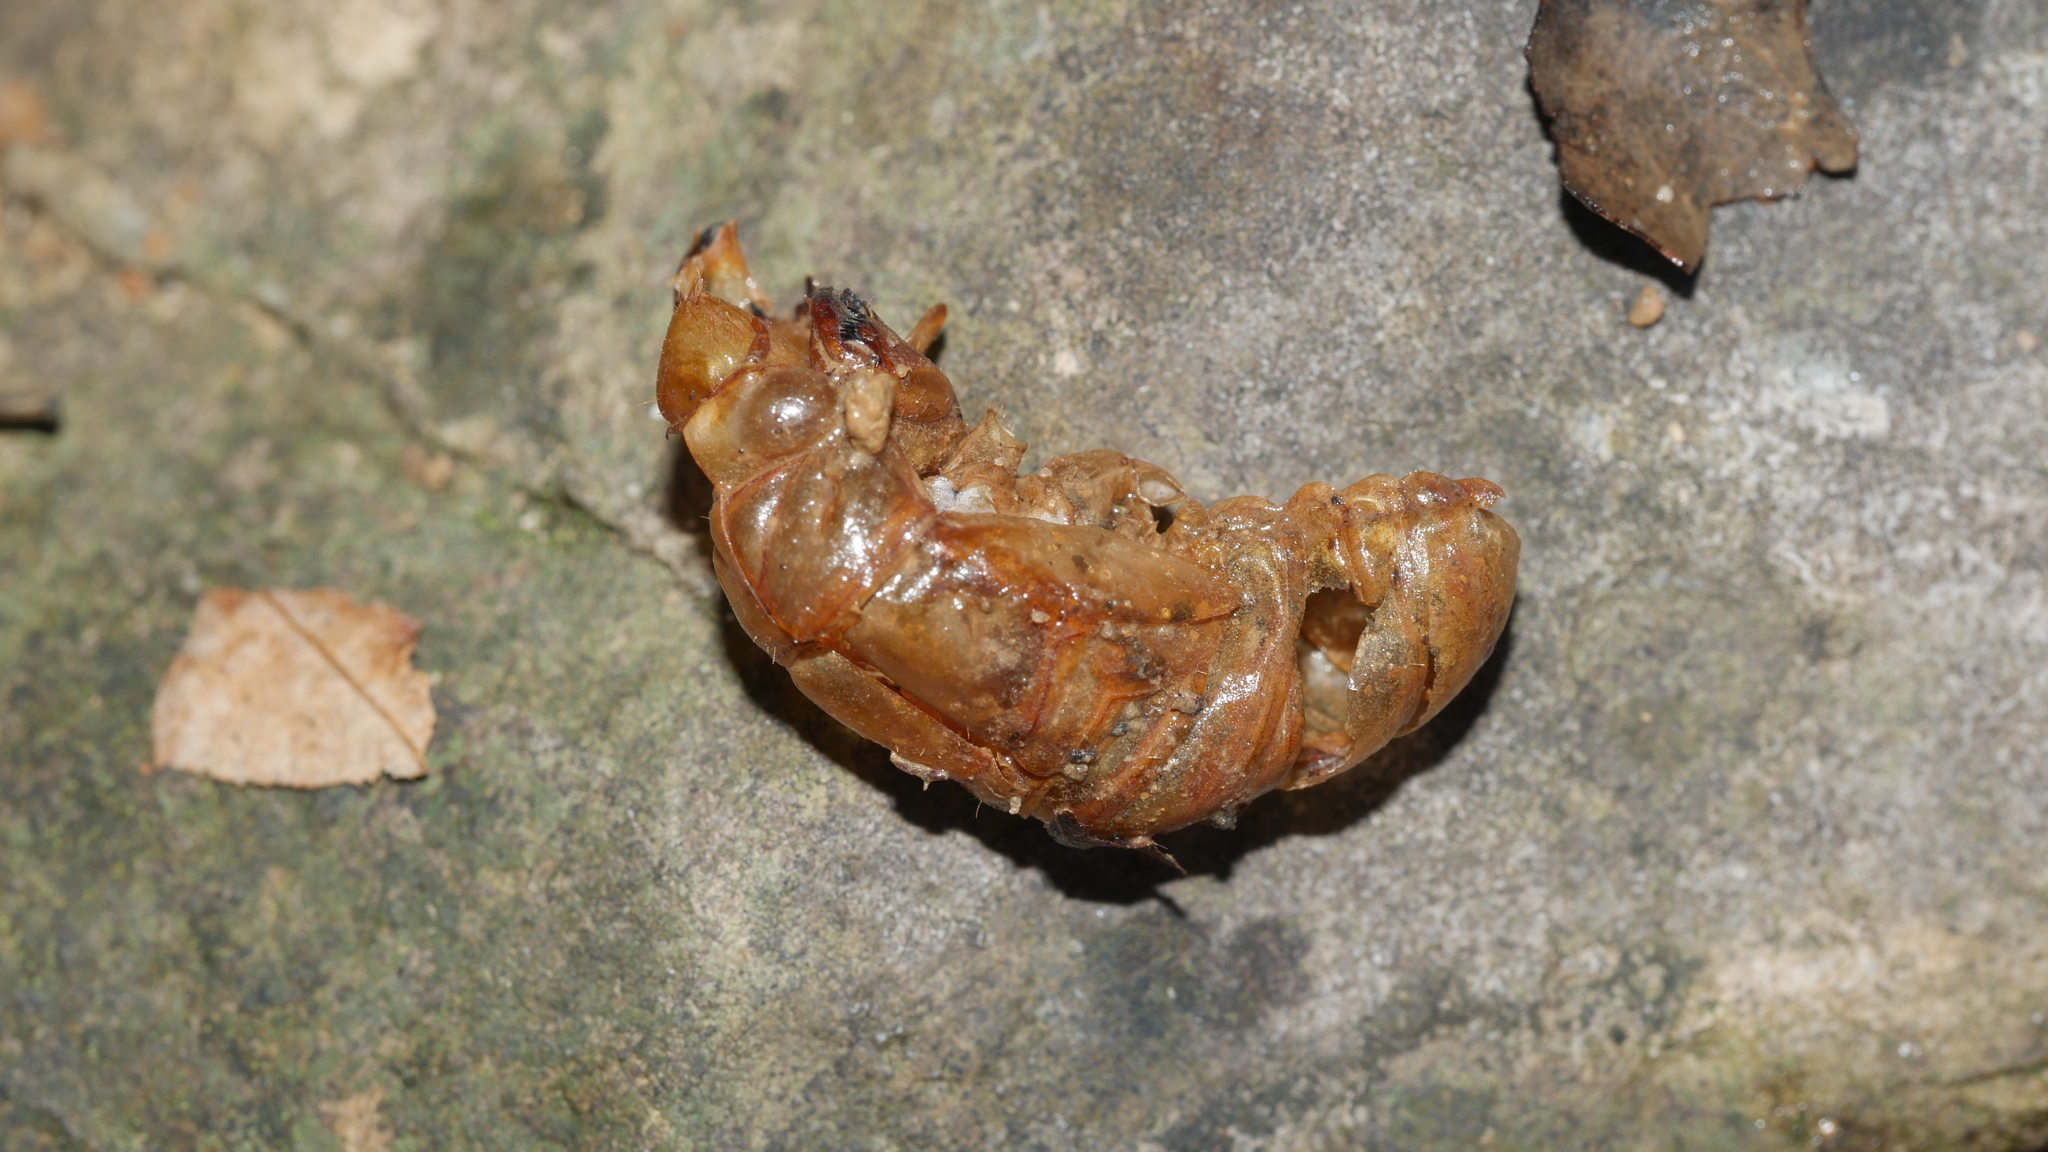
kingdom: Animalia
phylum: Arthropoda
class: Insecta
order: Hemiptera
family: Cicadidae
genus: Magicicada
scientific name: Magicicada
